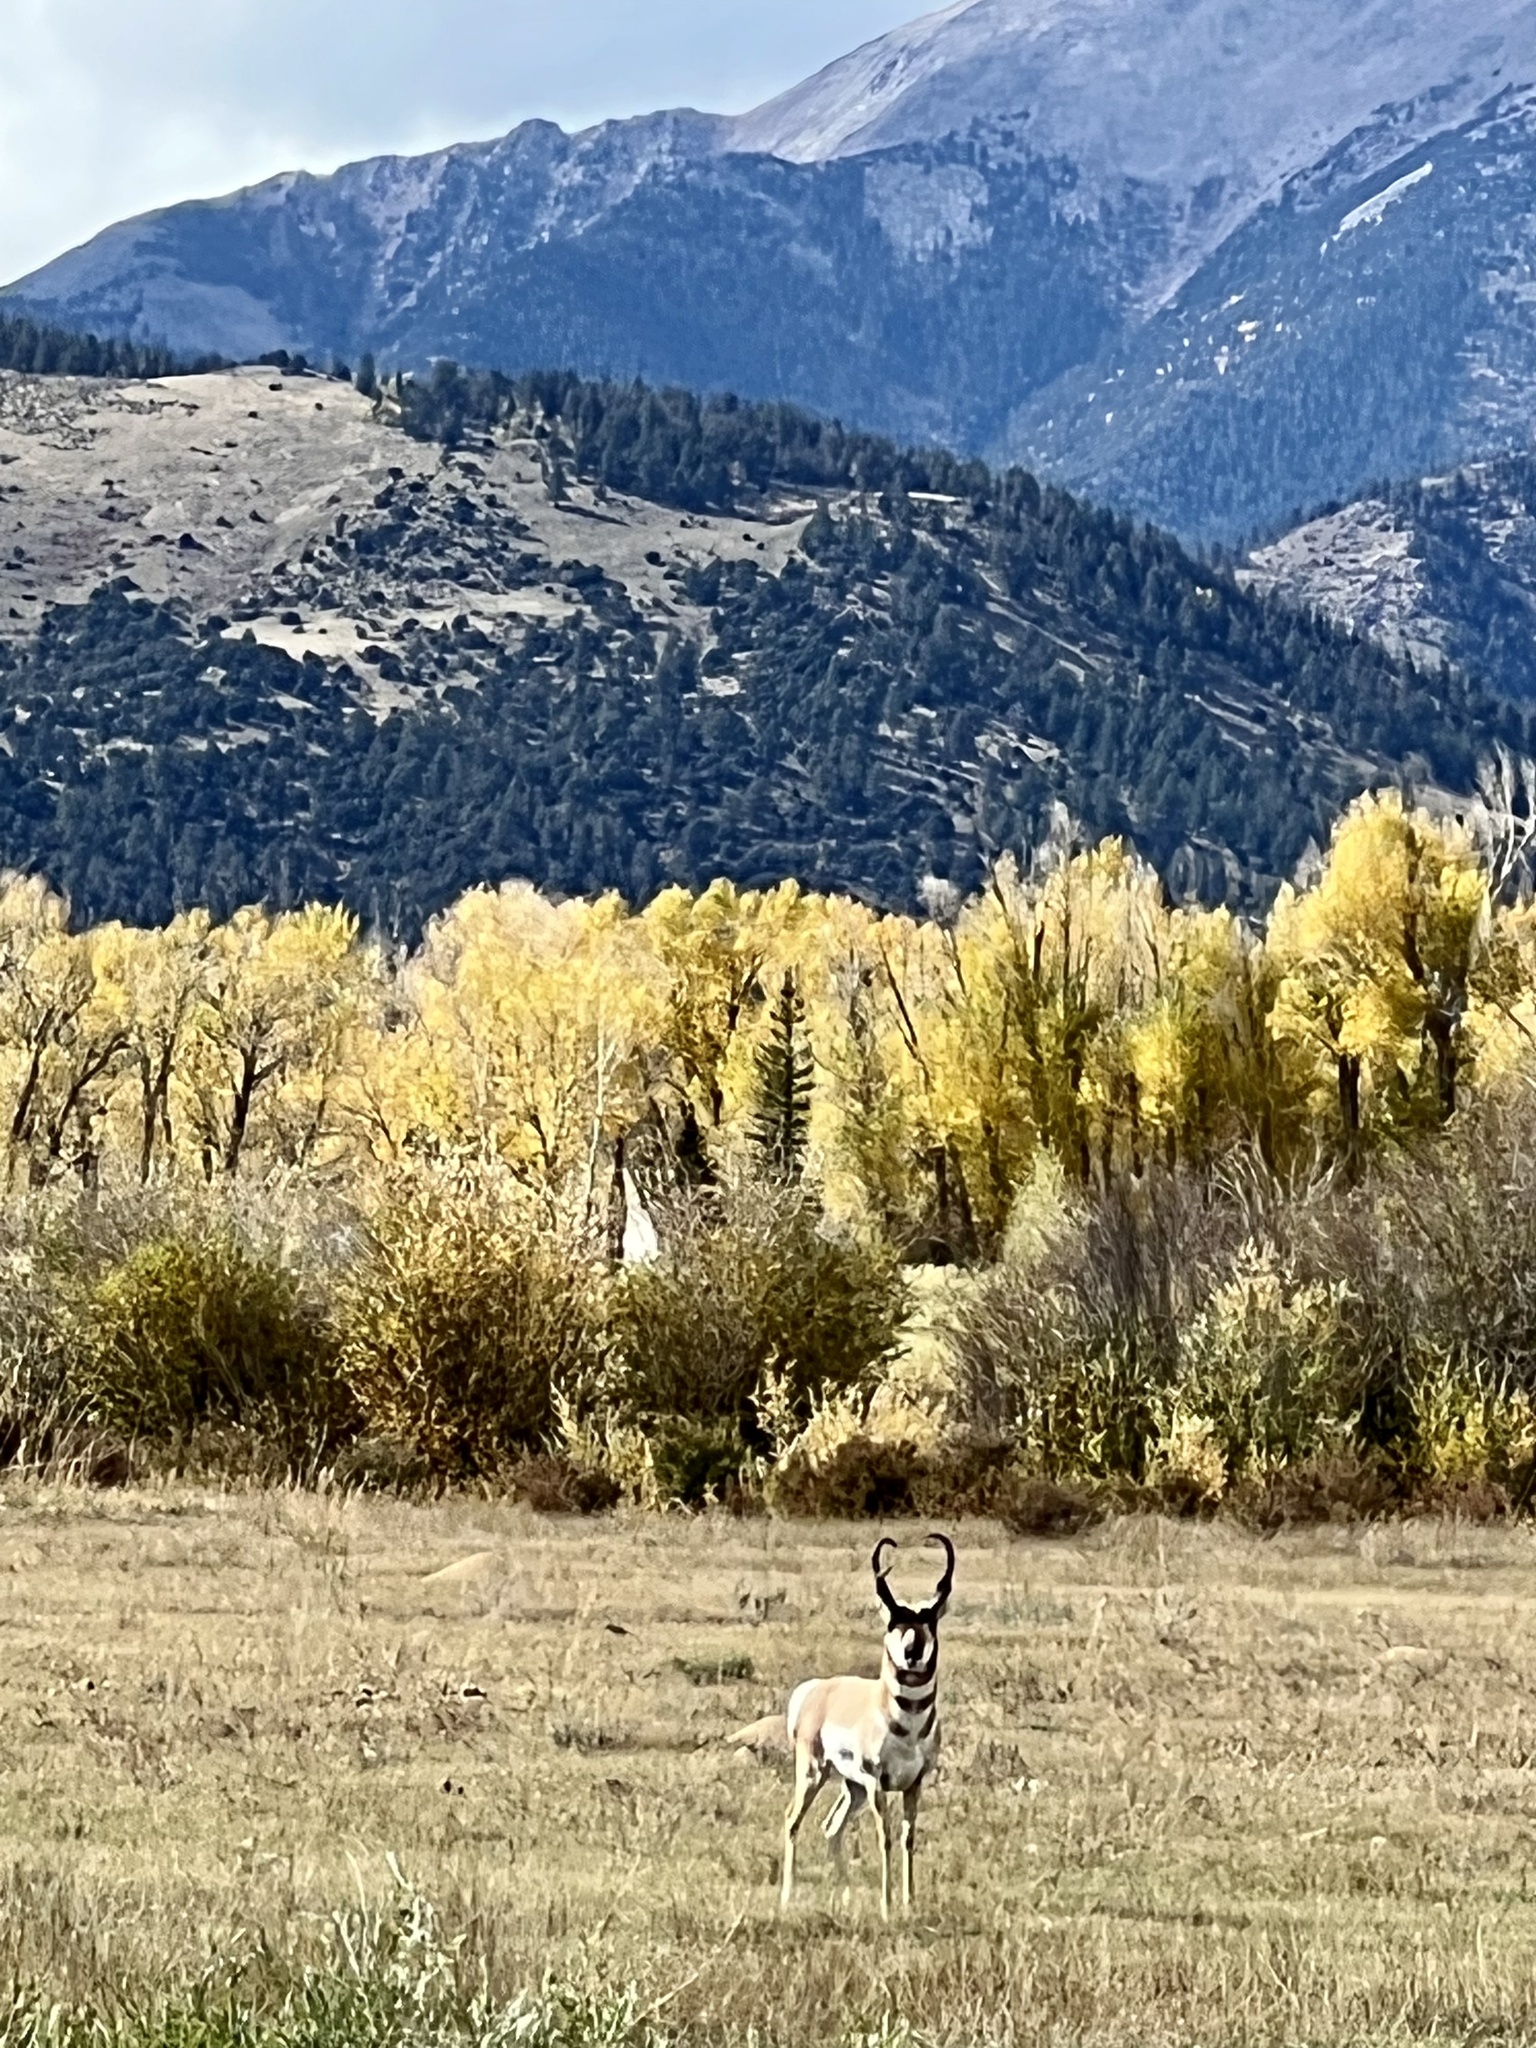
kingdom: Animalia
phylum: Chordata
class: Mammalia
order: Artiodactyla
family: Antilocapridae
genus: Antilocapra
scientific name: Antilocapra americana
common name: Pronghorn
